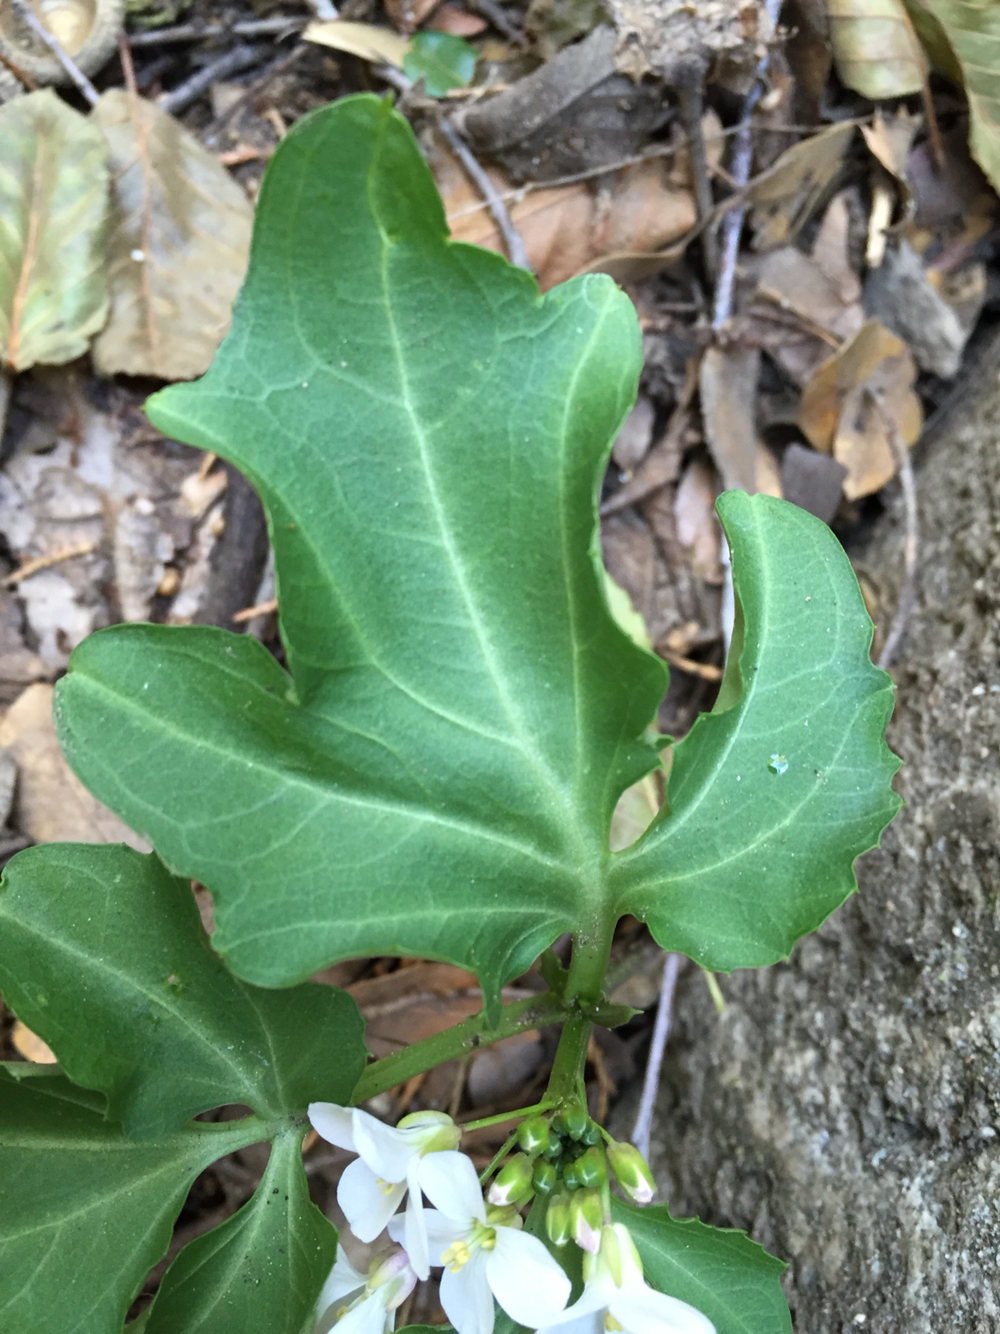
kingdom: Plantae
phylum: Tracheophyta
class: Magnoliopsida
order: Brassicales
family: Brassicaceae
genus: Cardamine
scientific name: Cardamine californica
